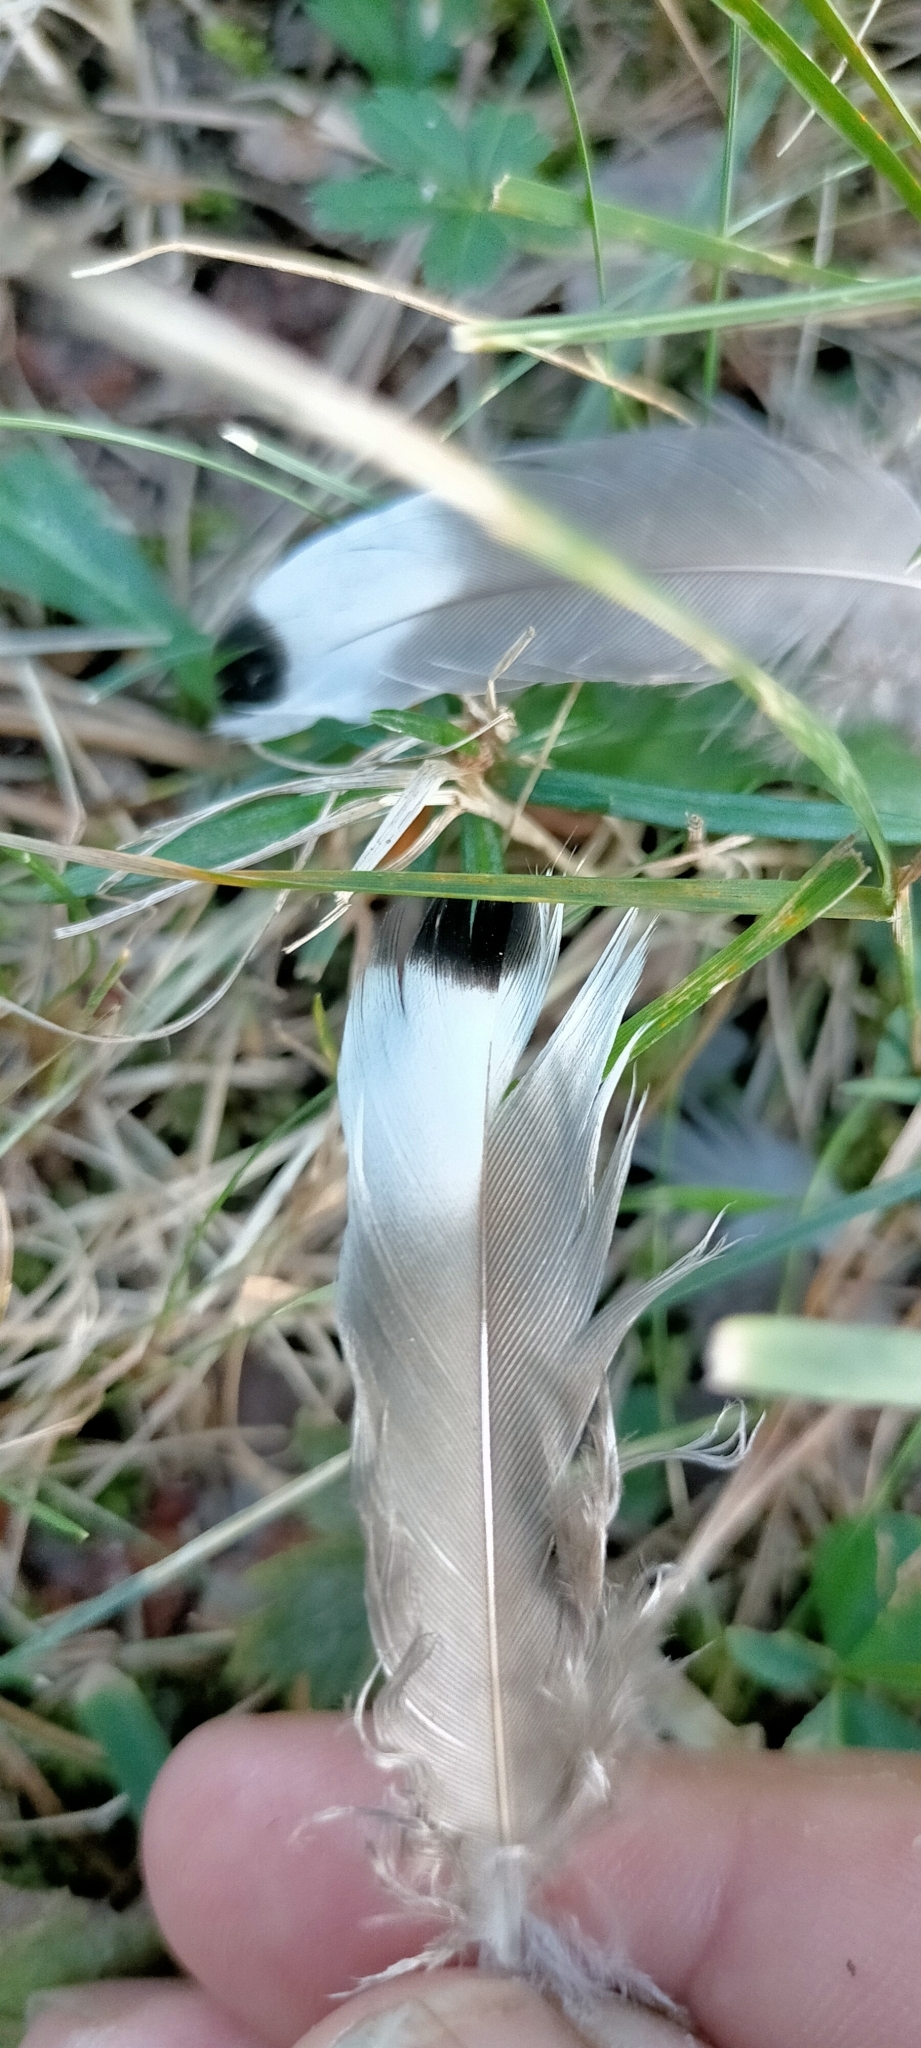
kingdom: Animalia
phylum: Chordata
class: Aves
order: Anseriformes
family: Anatidae
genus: Anas
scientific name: Anas platyrhynchos
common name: Mallard
